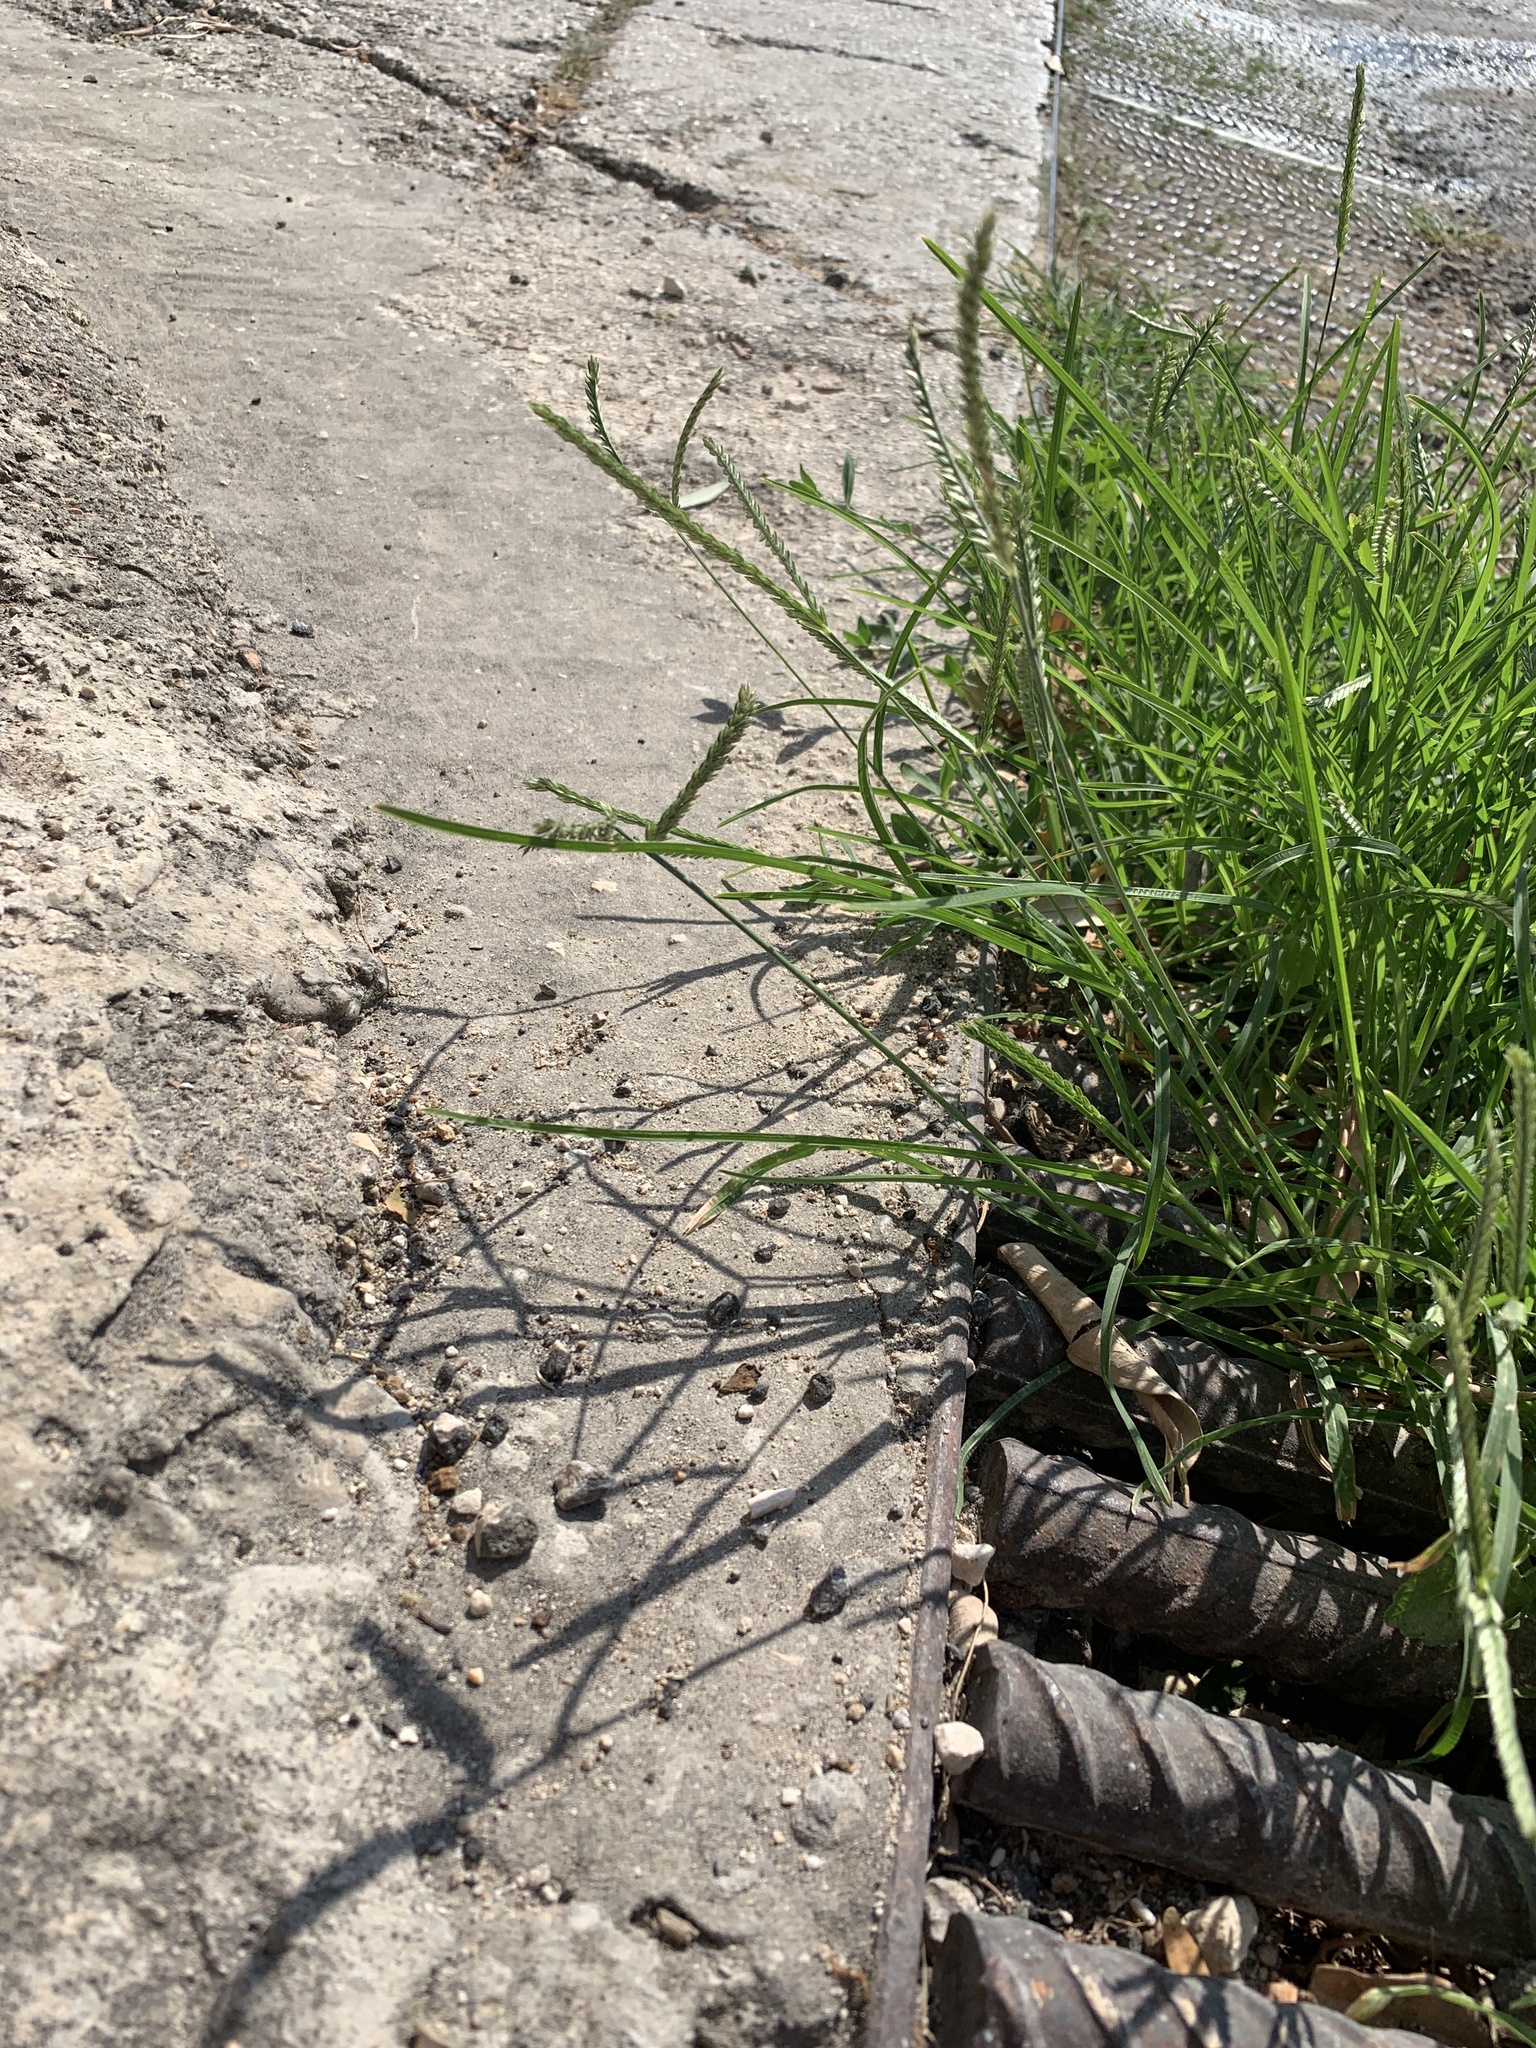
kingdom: Plantae
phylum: Tracheophyta
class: Liliopsida
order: Poales
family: Poaceae
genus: Eleusine
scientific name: Eleusine indica
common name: Yard-grass
